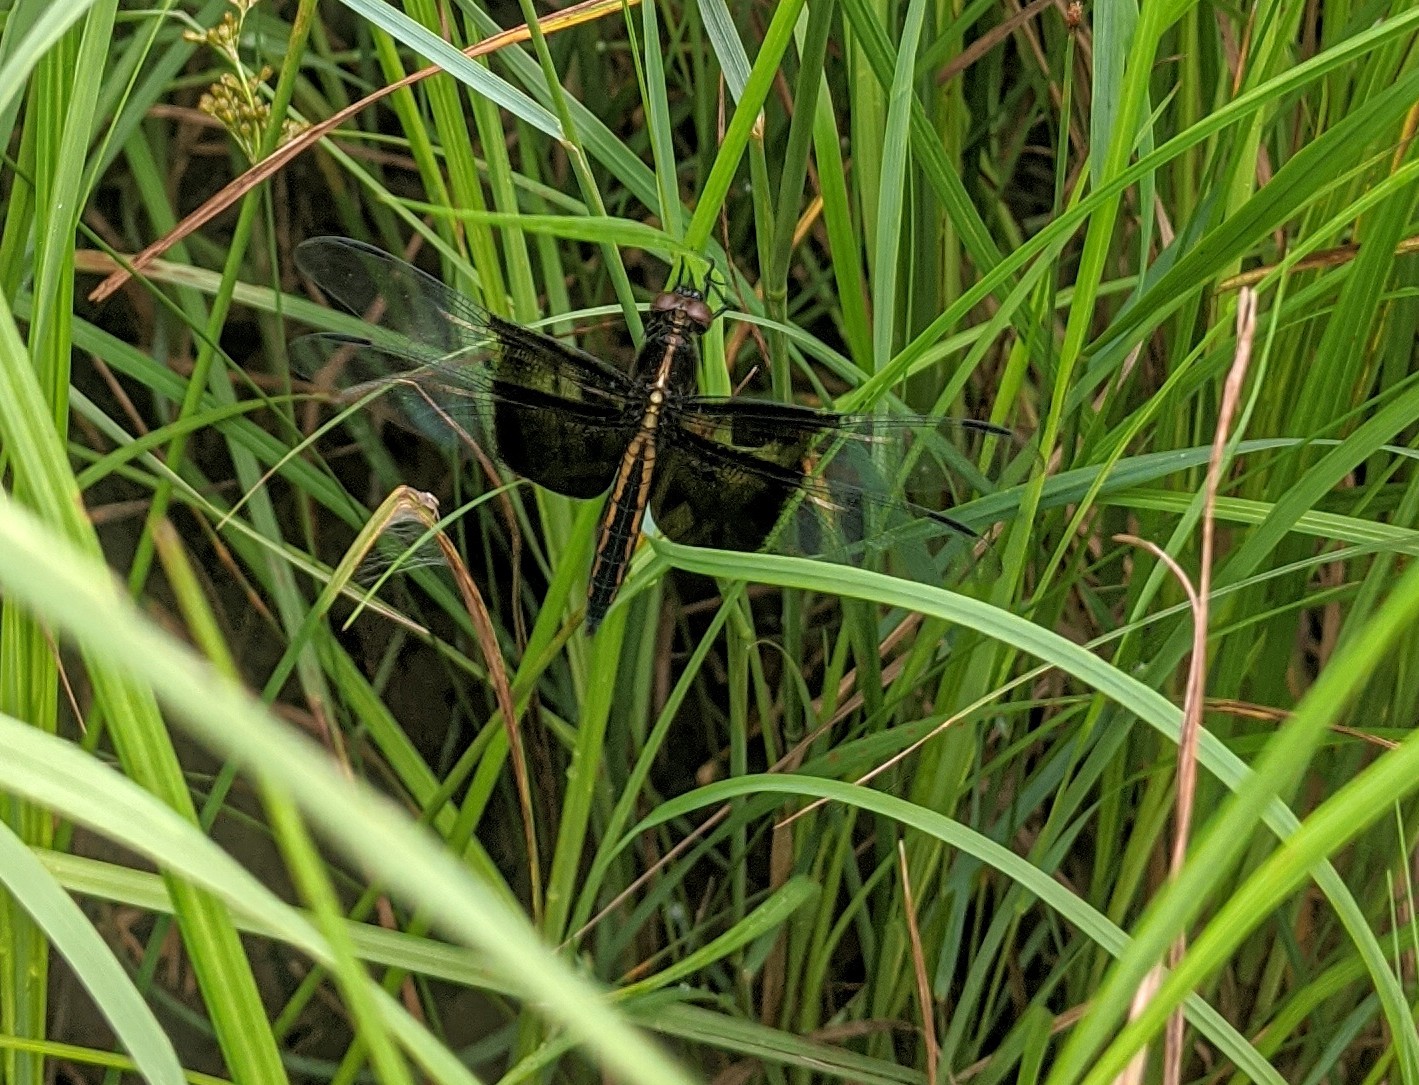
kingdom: Animalia
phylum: Arthropoda
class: Insecta
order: Odonata
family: Libellulidae
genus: Libellula
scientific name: Libellula luctuosa
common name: Widow skimmer
